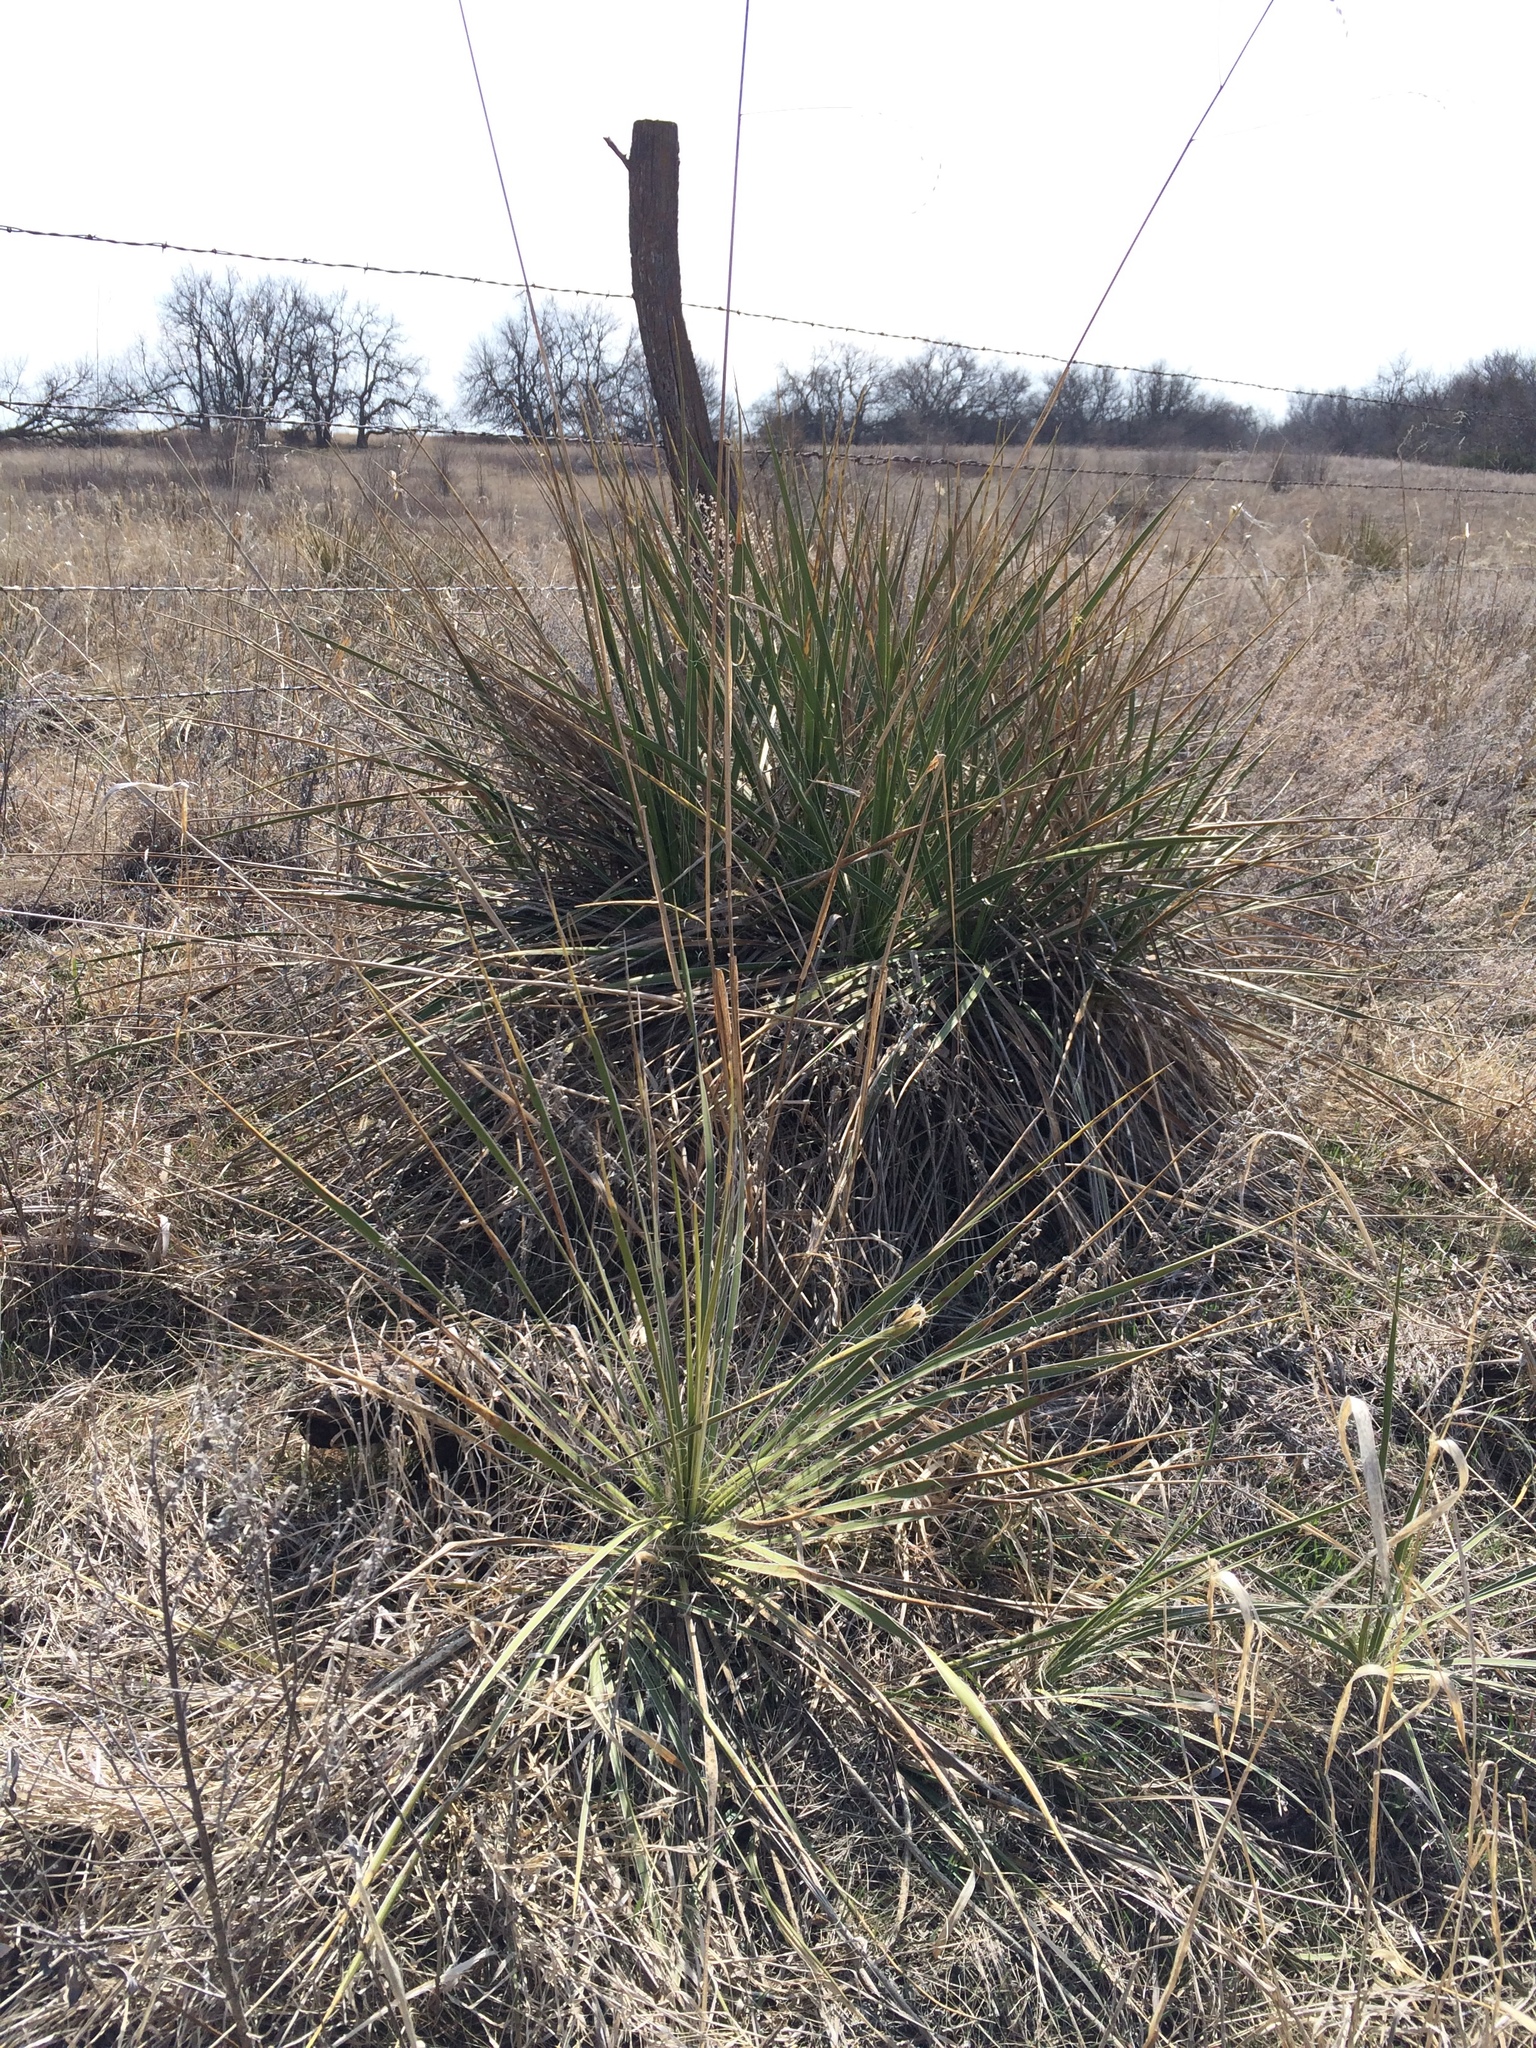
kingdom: Plantae
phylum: Tracheophyta
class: Liliopsida
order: Asparagales
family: Asparagaceae
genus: Yucca
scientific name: Yucca glauca
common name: Great plains yucca
